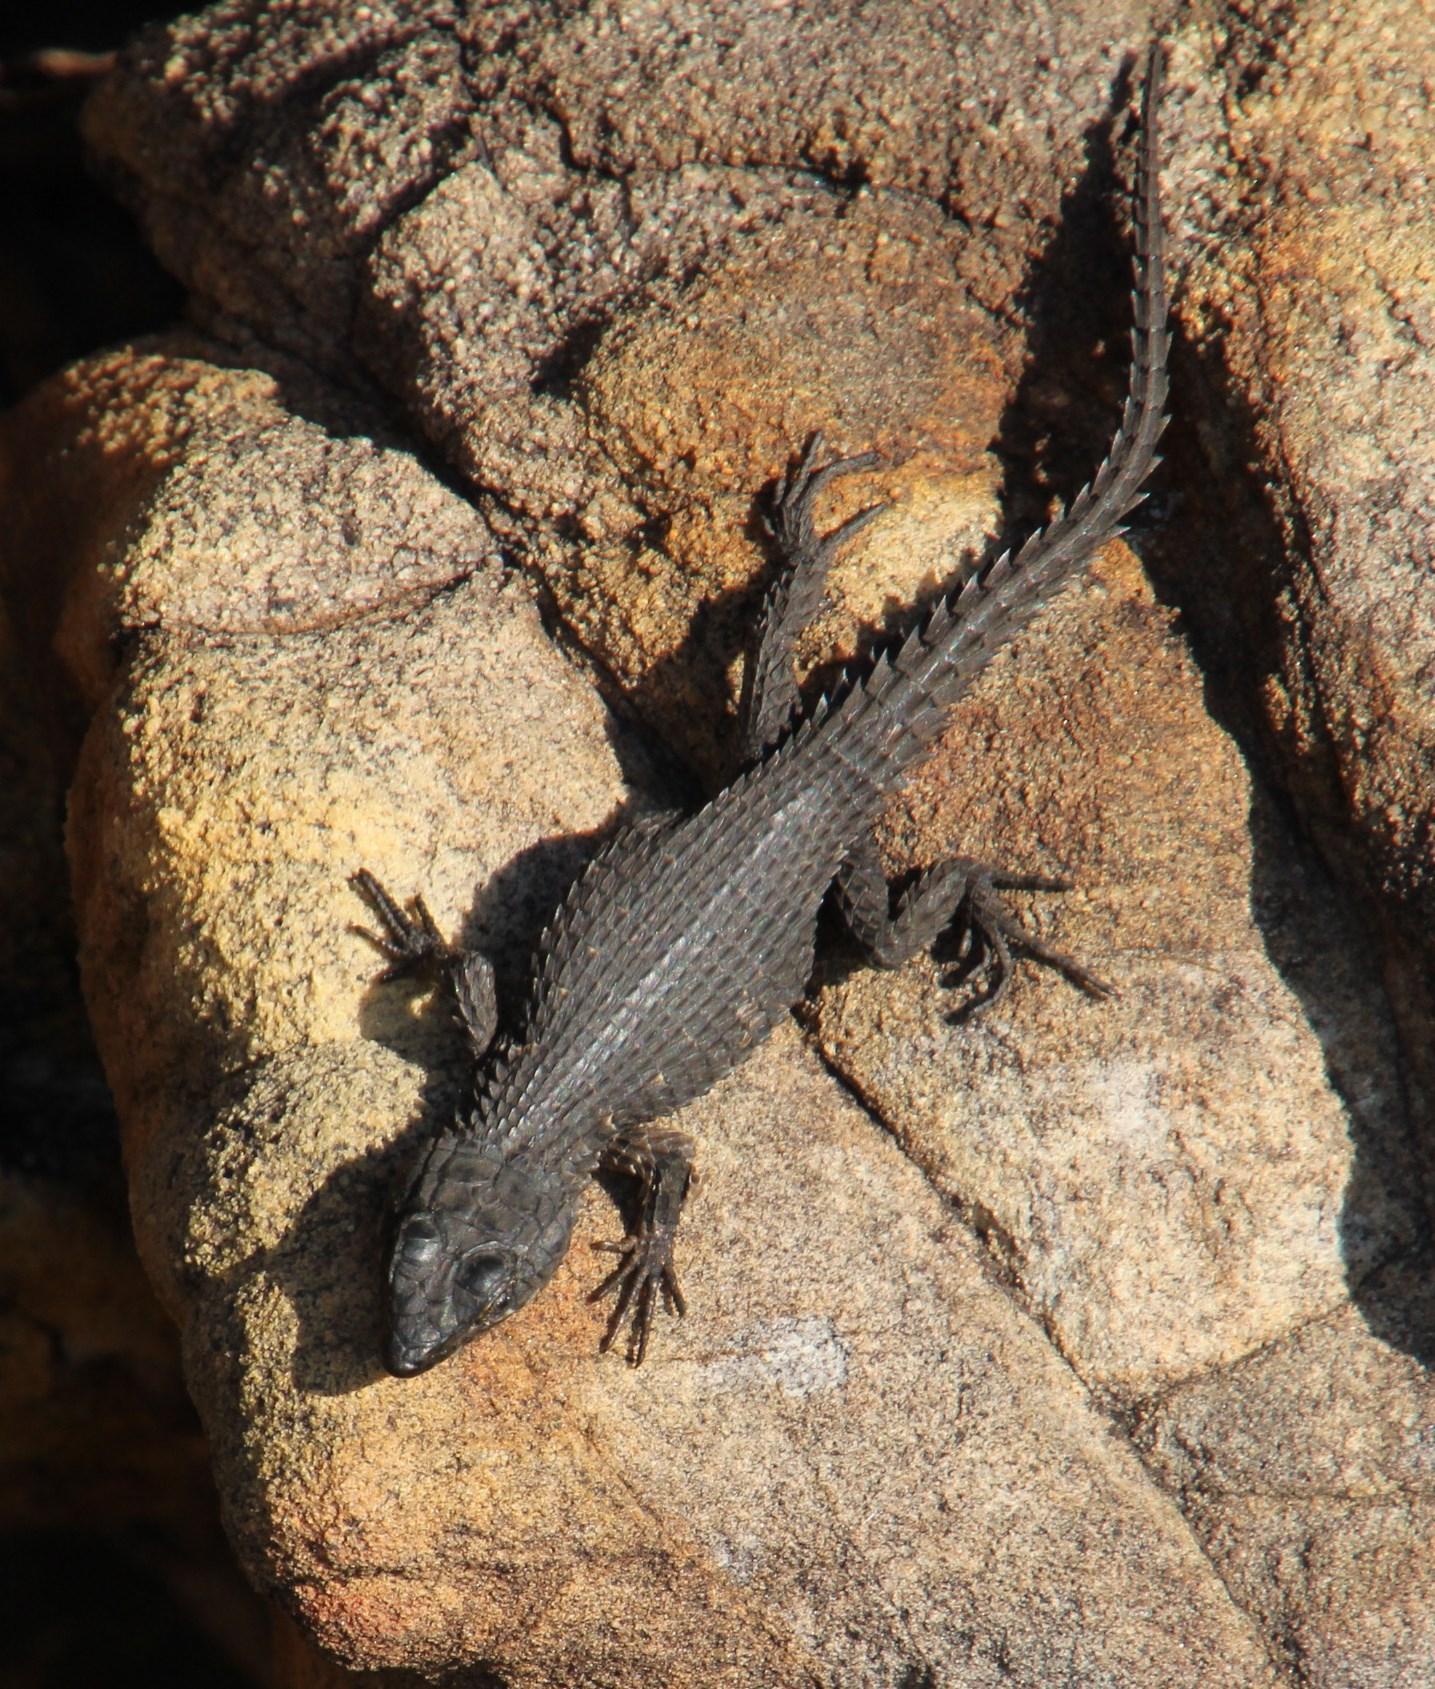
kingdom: Animalia
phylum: Chordata
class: Squamata
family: Cordylidae
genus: Cordylus
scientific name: Cordylus niger
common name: Black girdled lizard
